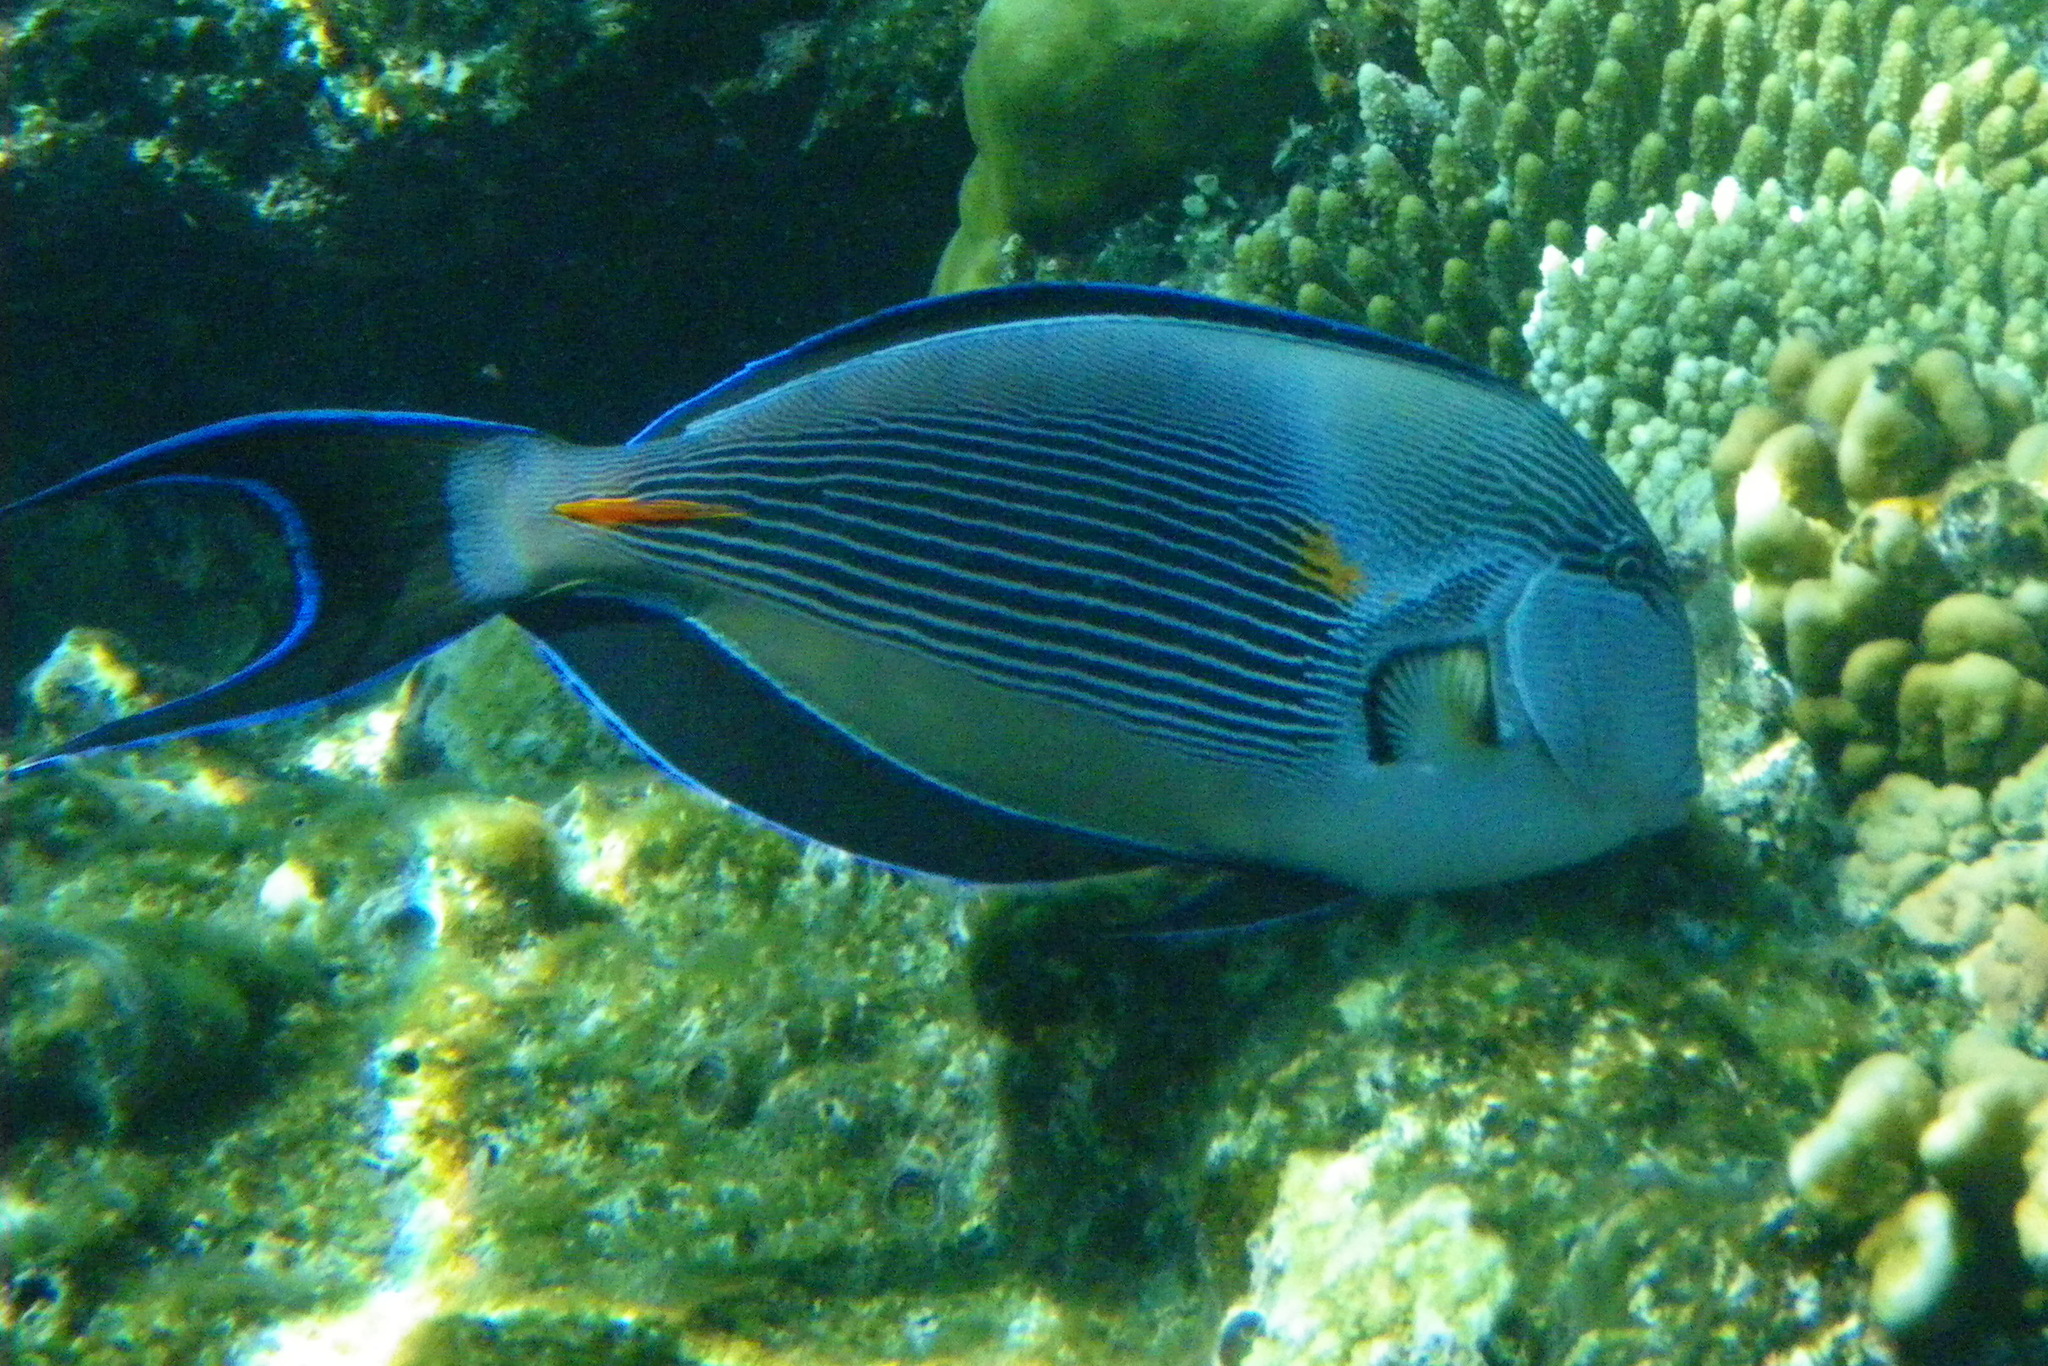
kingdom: Animalia
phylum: Chordata
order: Perciformes
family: Acanthuridae
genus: Acanthurus
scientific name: Acanthurus sohal
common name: Red sea surgeonfish
